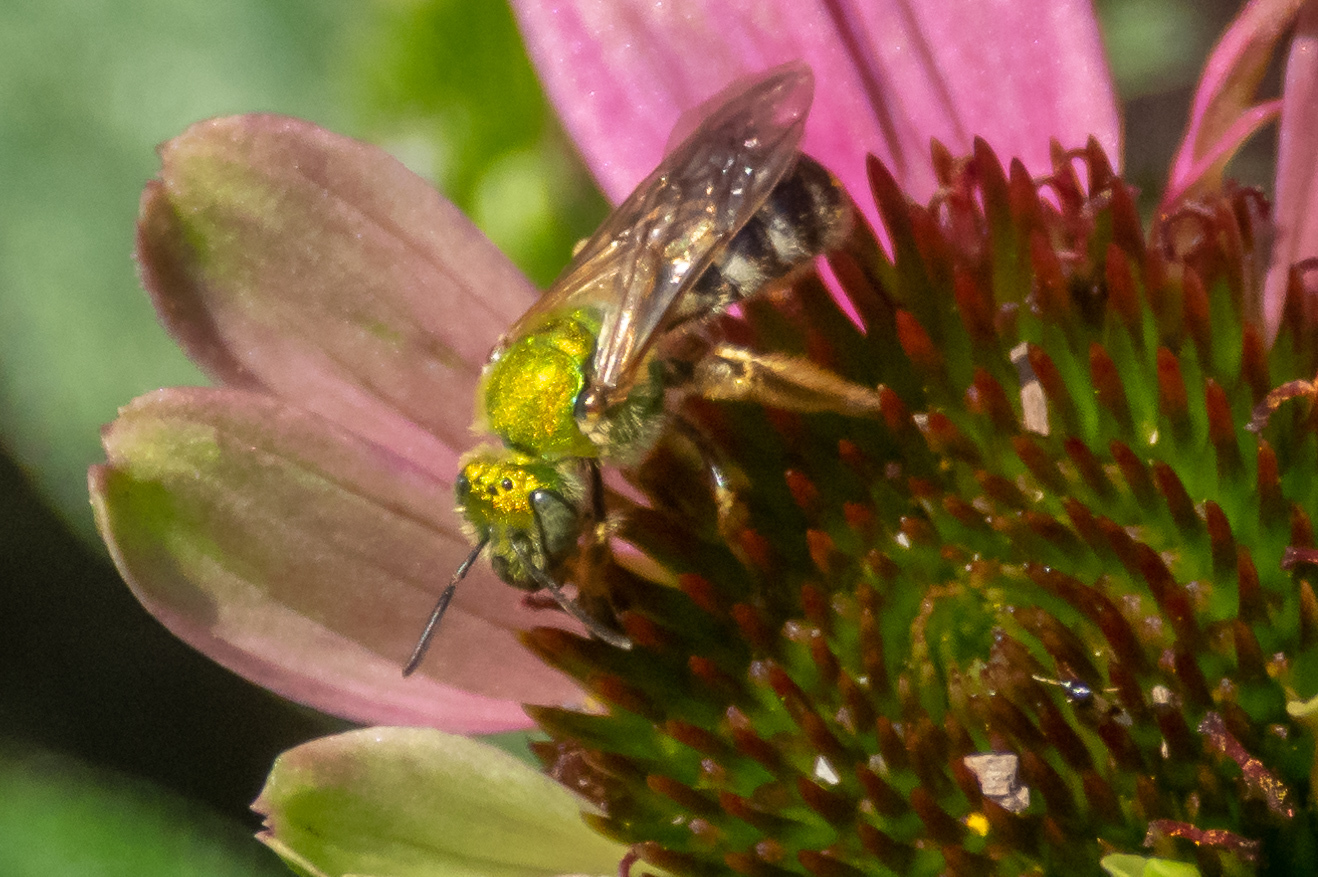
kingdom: Animalia
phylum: Arthropoda
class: Insecta
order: Hymenoptera
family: Halictidae
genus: Agapostemon
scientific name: Agapostemon virescens
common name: Bicolored striped sweat bee
